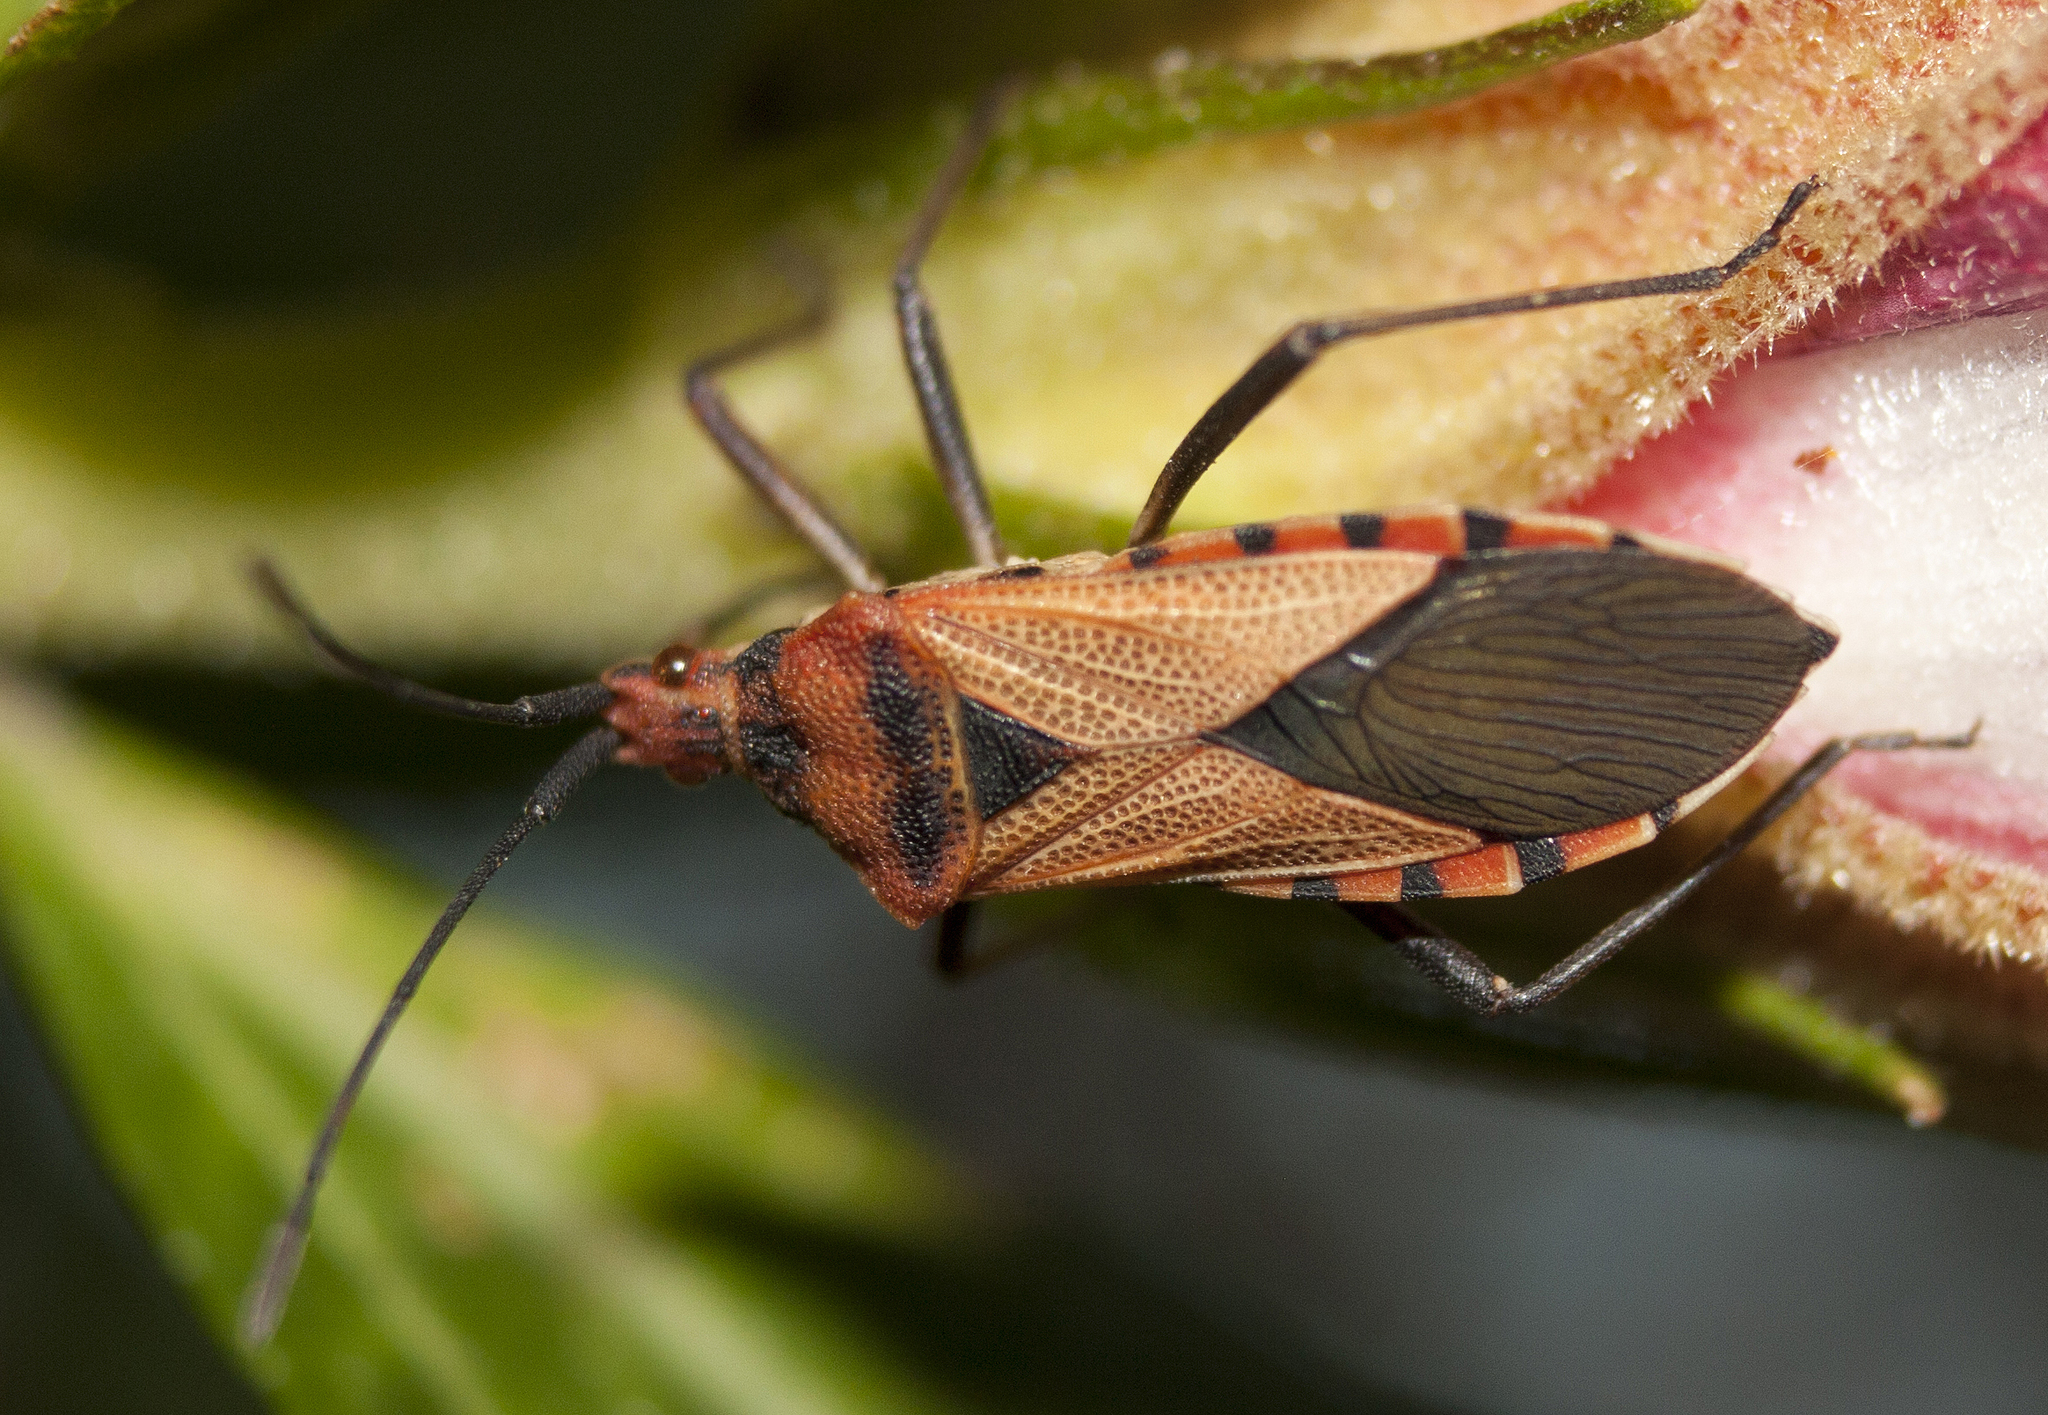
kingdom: Animalia
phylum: Arthropoda
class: Insecta
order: Hemiptera
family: Coreidae
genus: Aulacosternum
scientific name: Aulacosternum nigrorubrum
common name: Cotton plant bug
